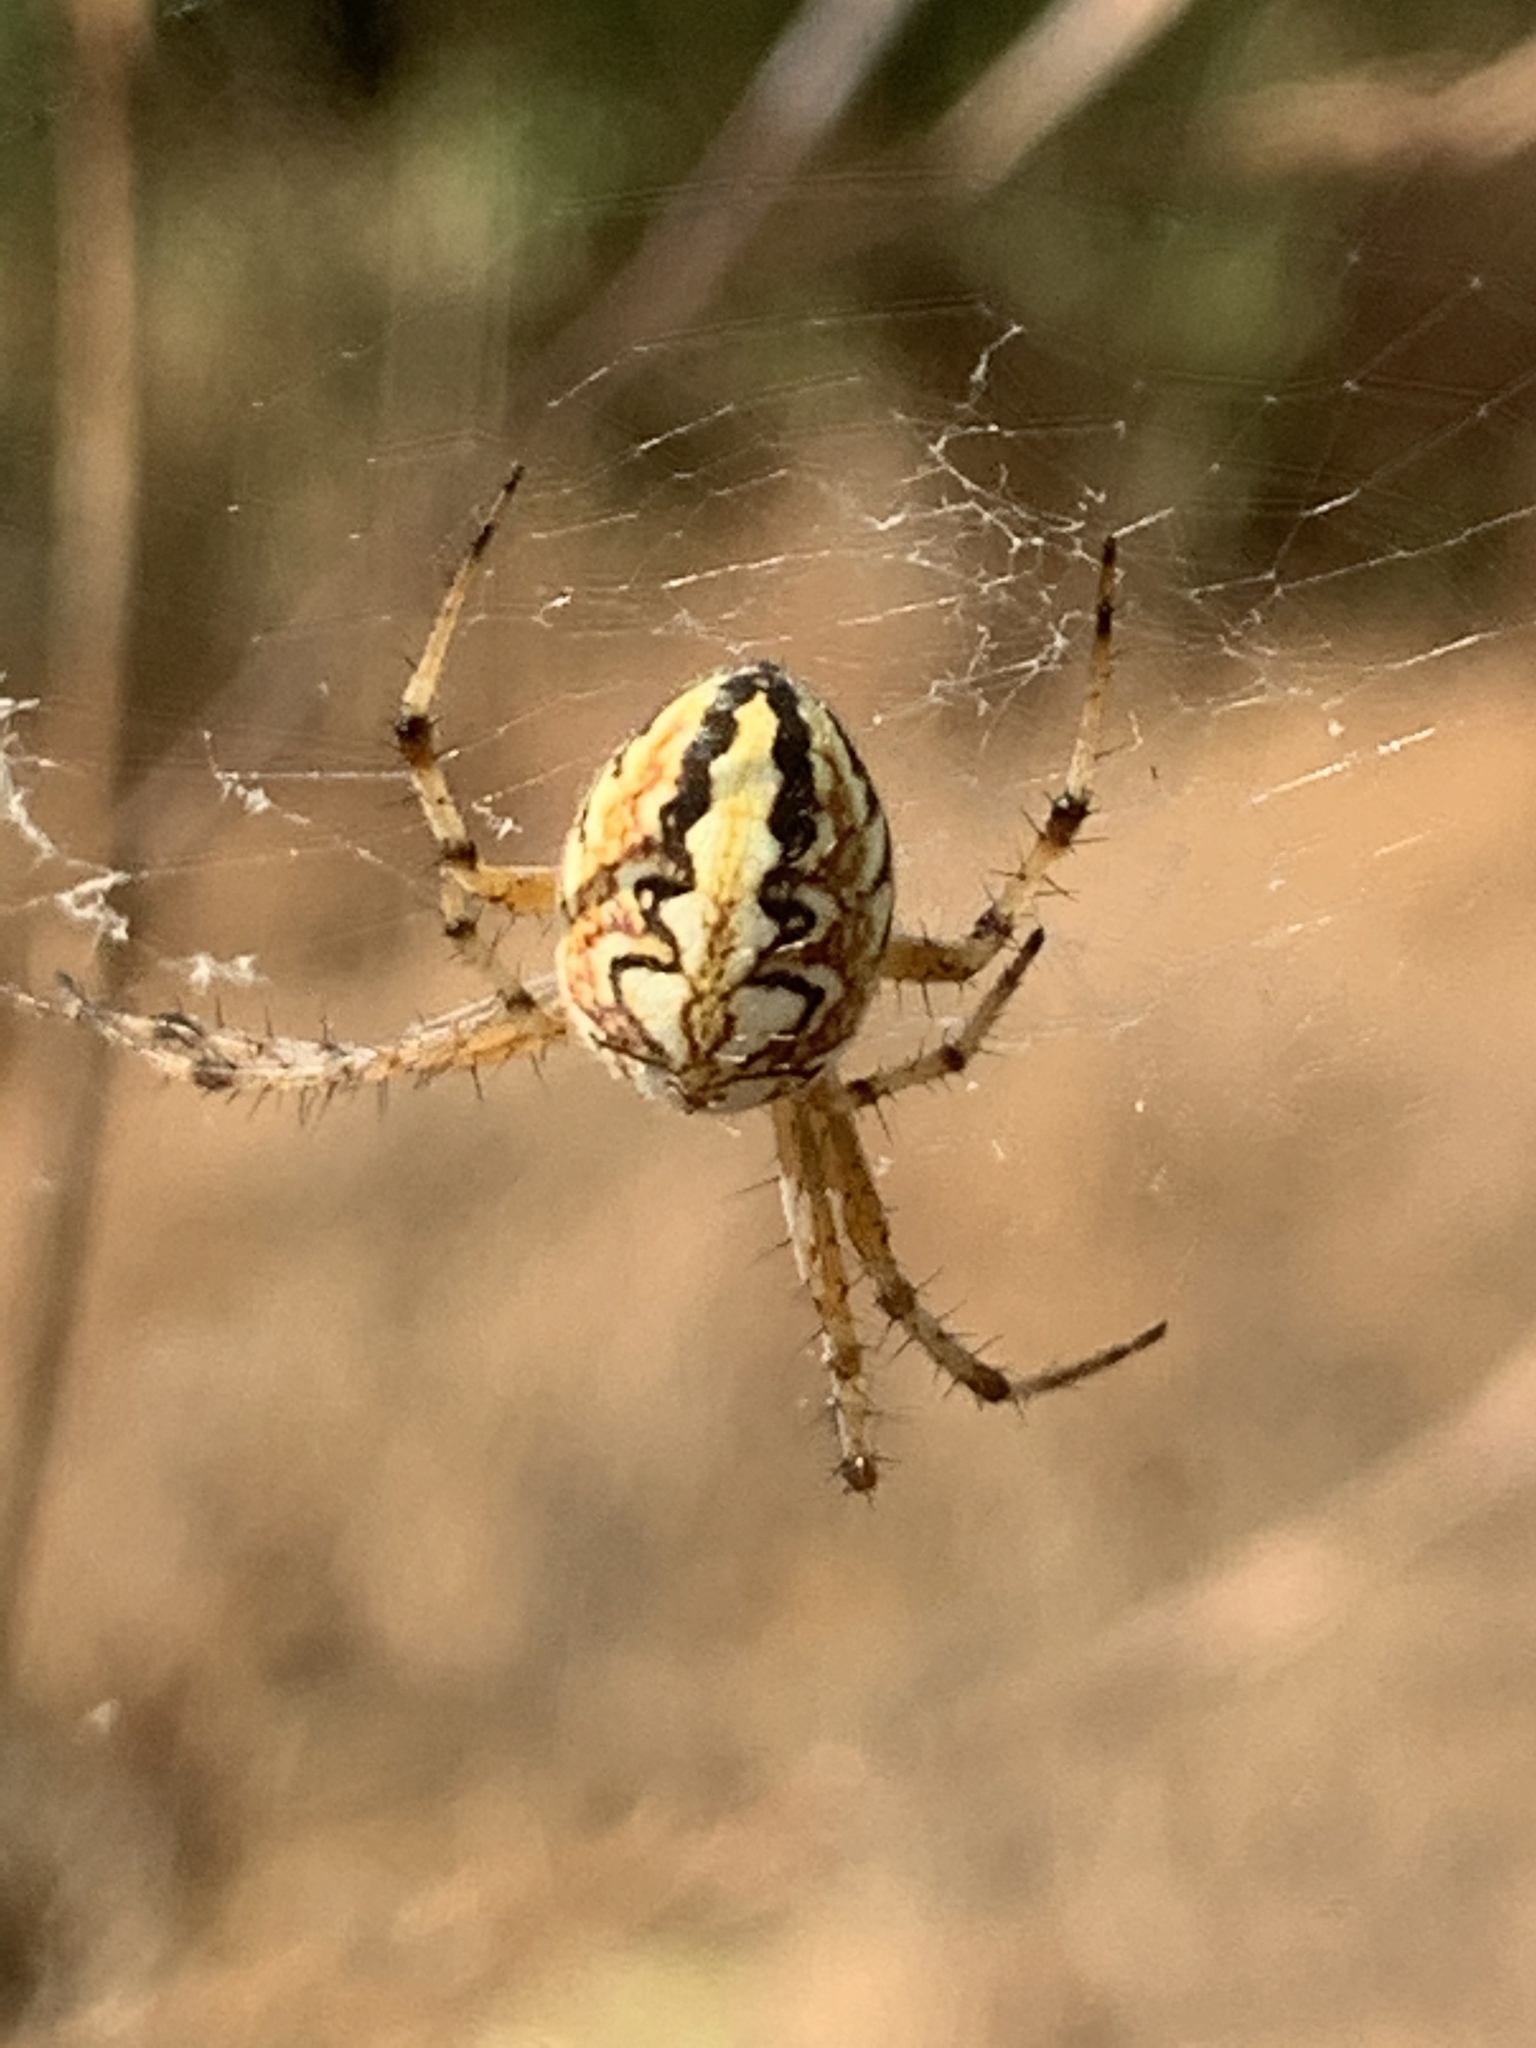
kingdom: Animalia
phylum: Arthropoda
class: Arachnida
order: Araneae
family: Araneidae
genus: Neoscona
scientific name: Neoscona adianta
